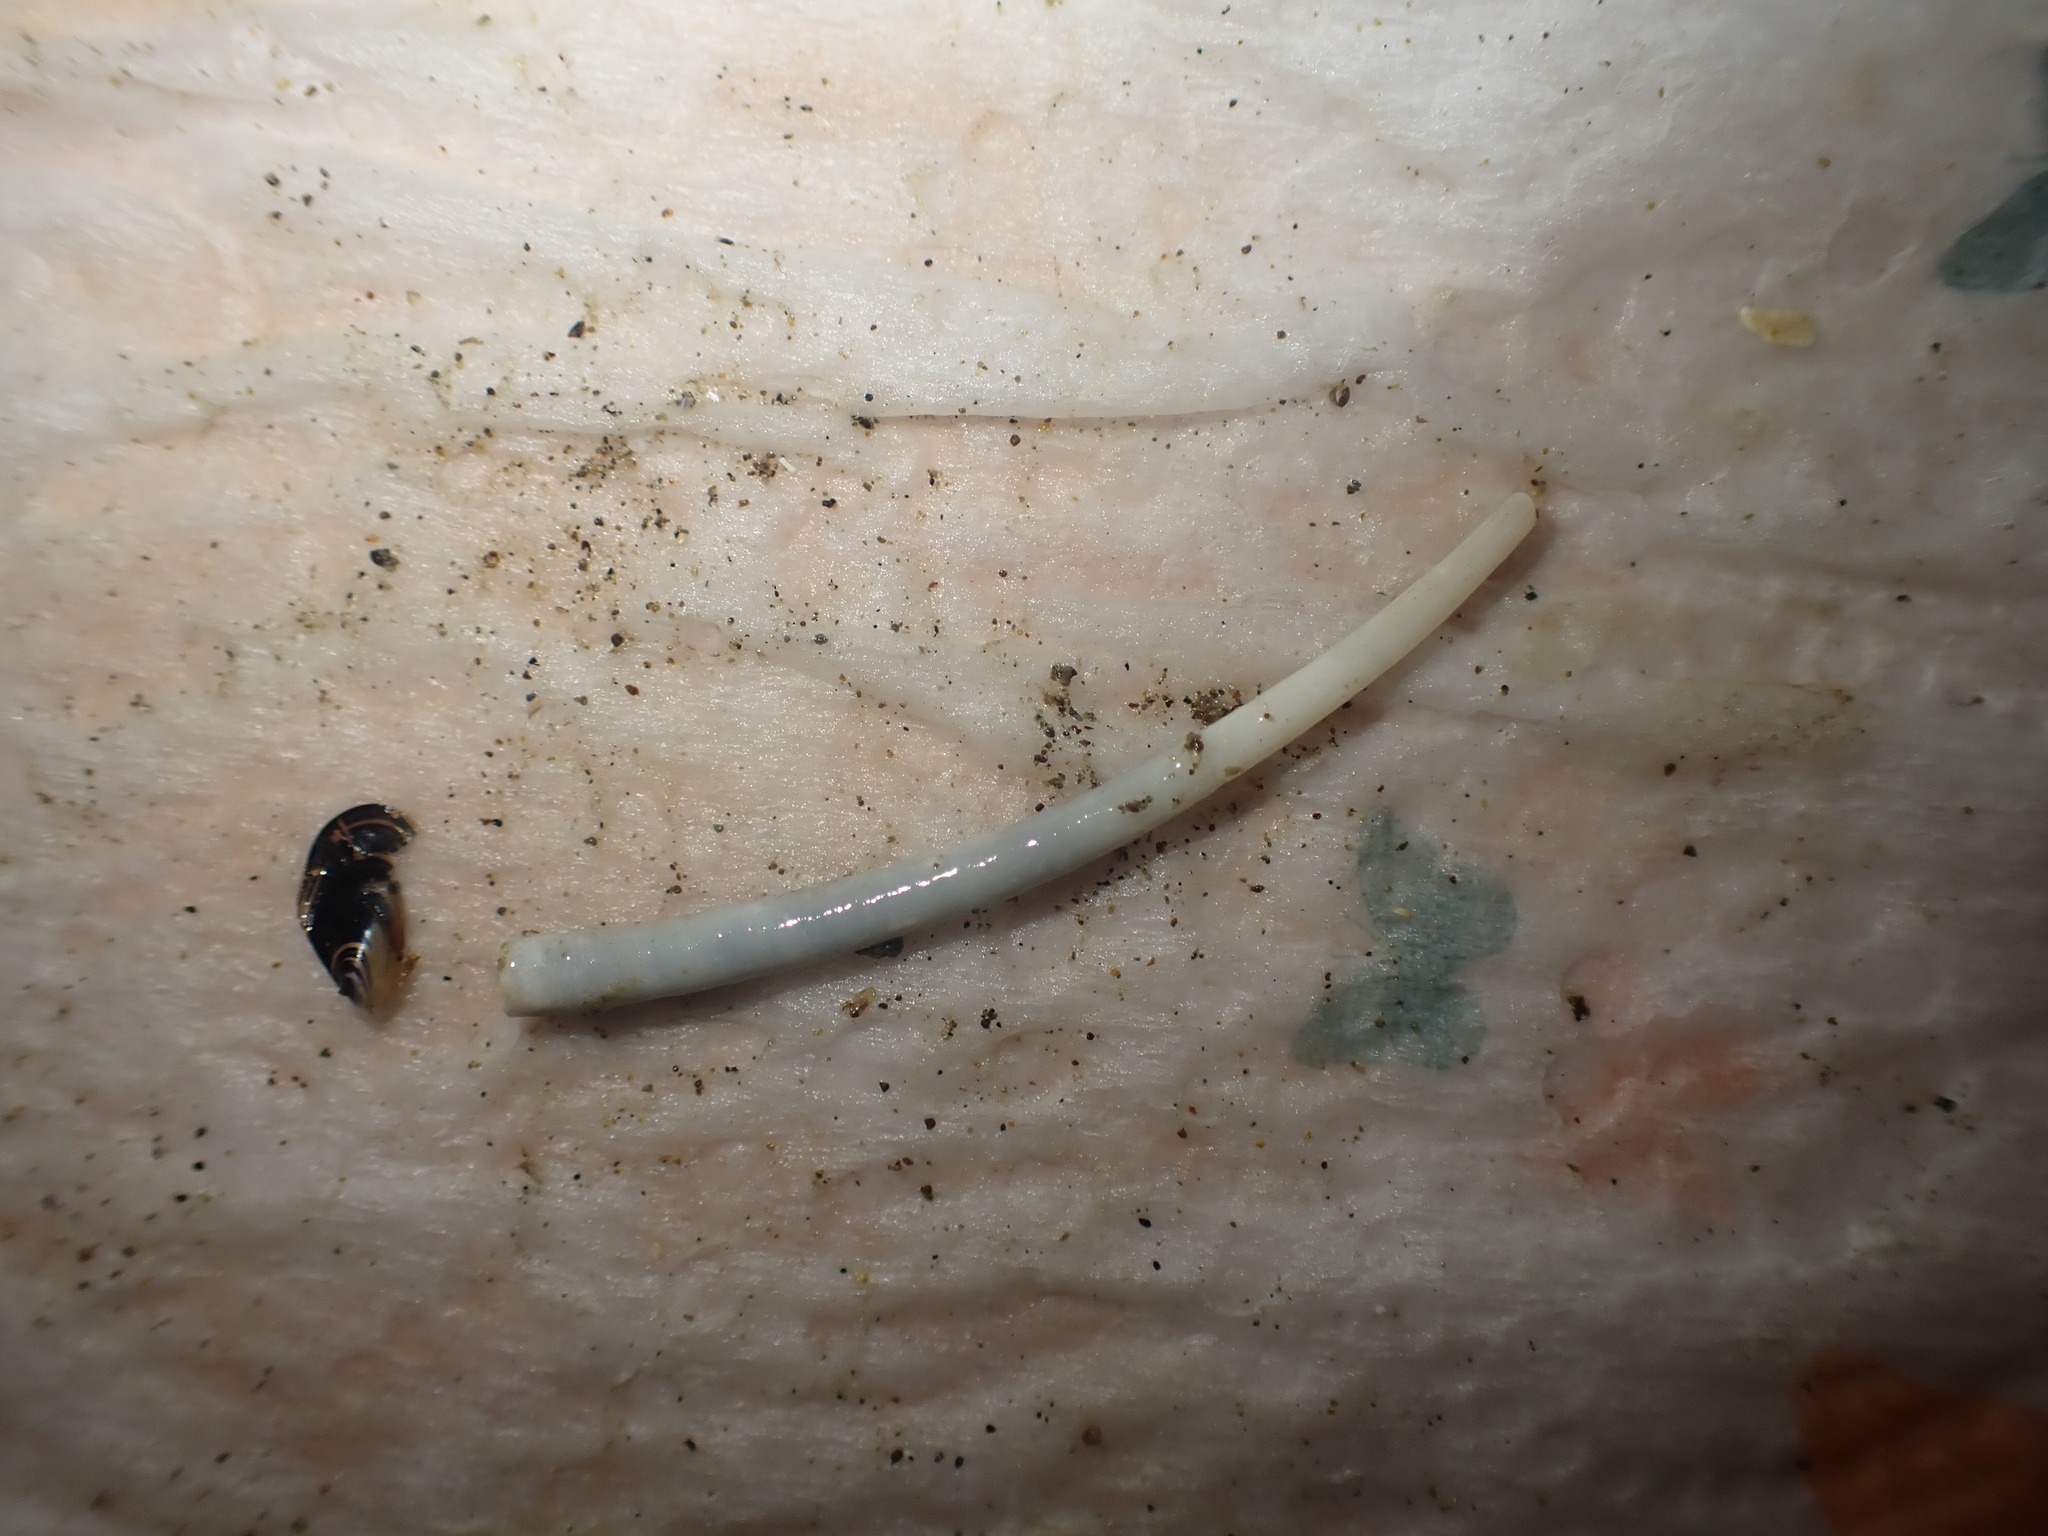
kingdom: Animalia
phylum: Mollusca
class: Scaphopoda
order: Dentaliida
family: Dentaliidae
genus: Antalis
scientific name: Antalis nana
